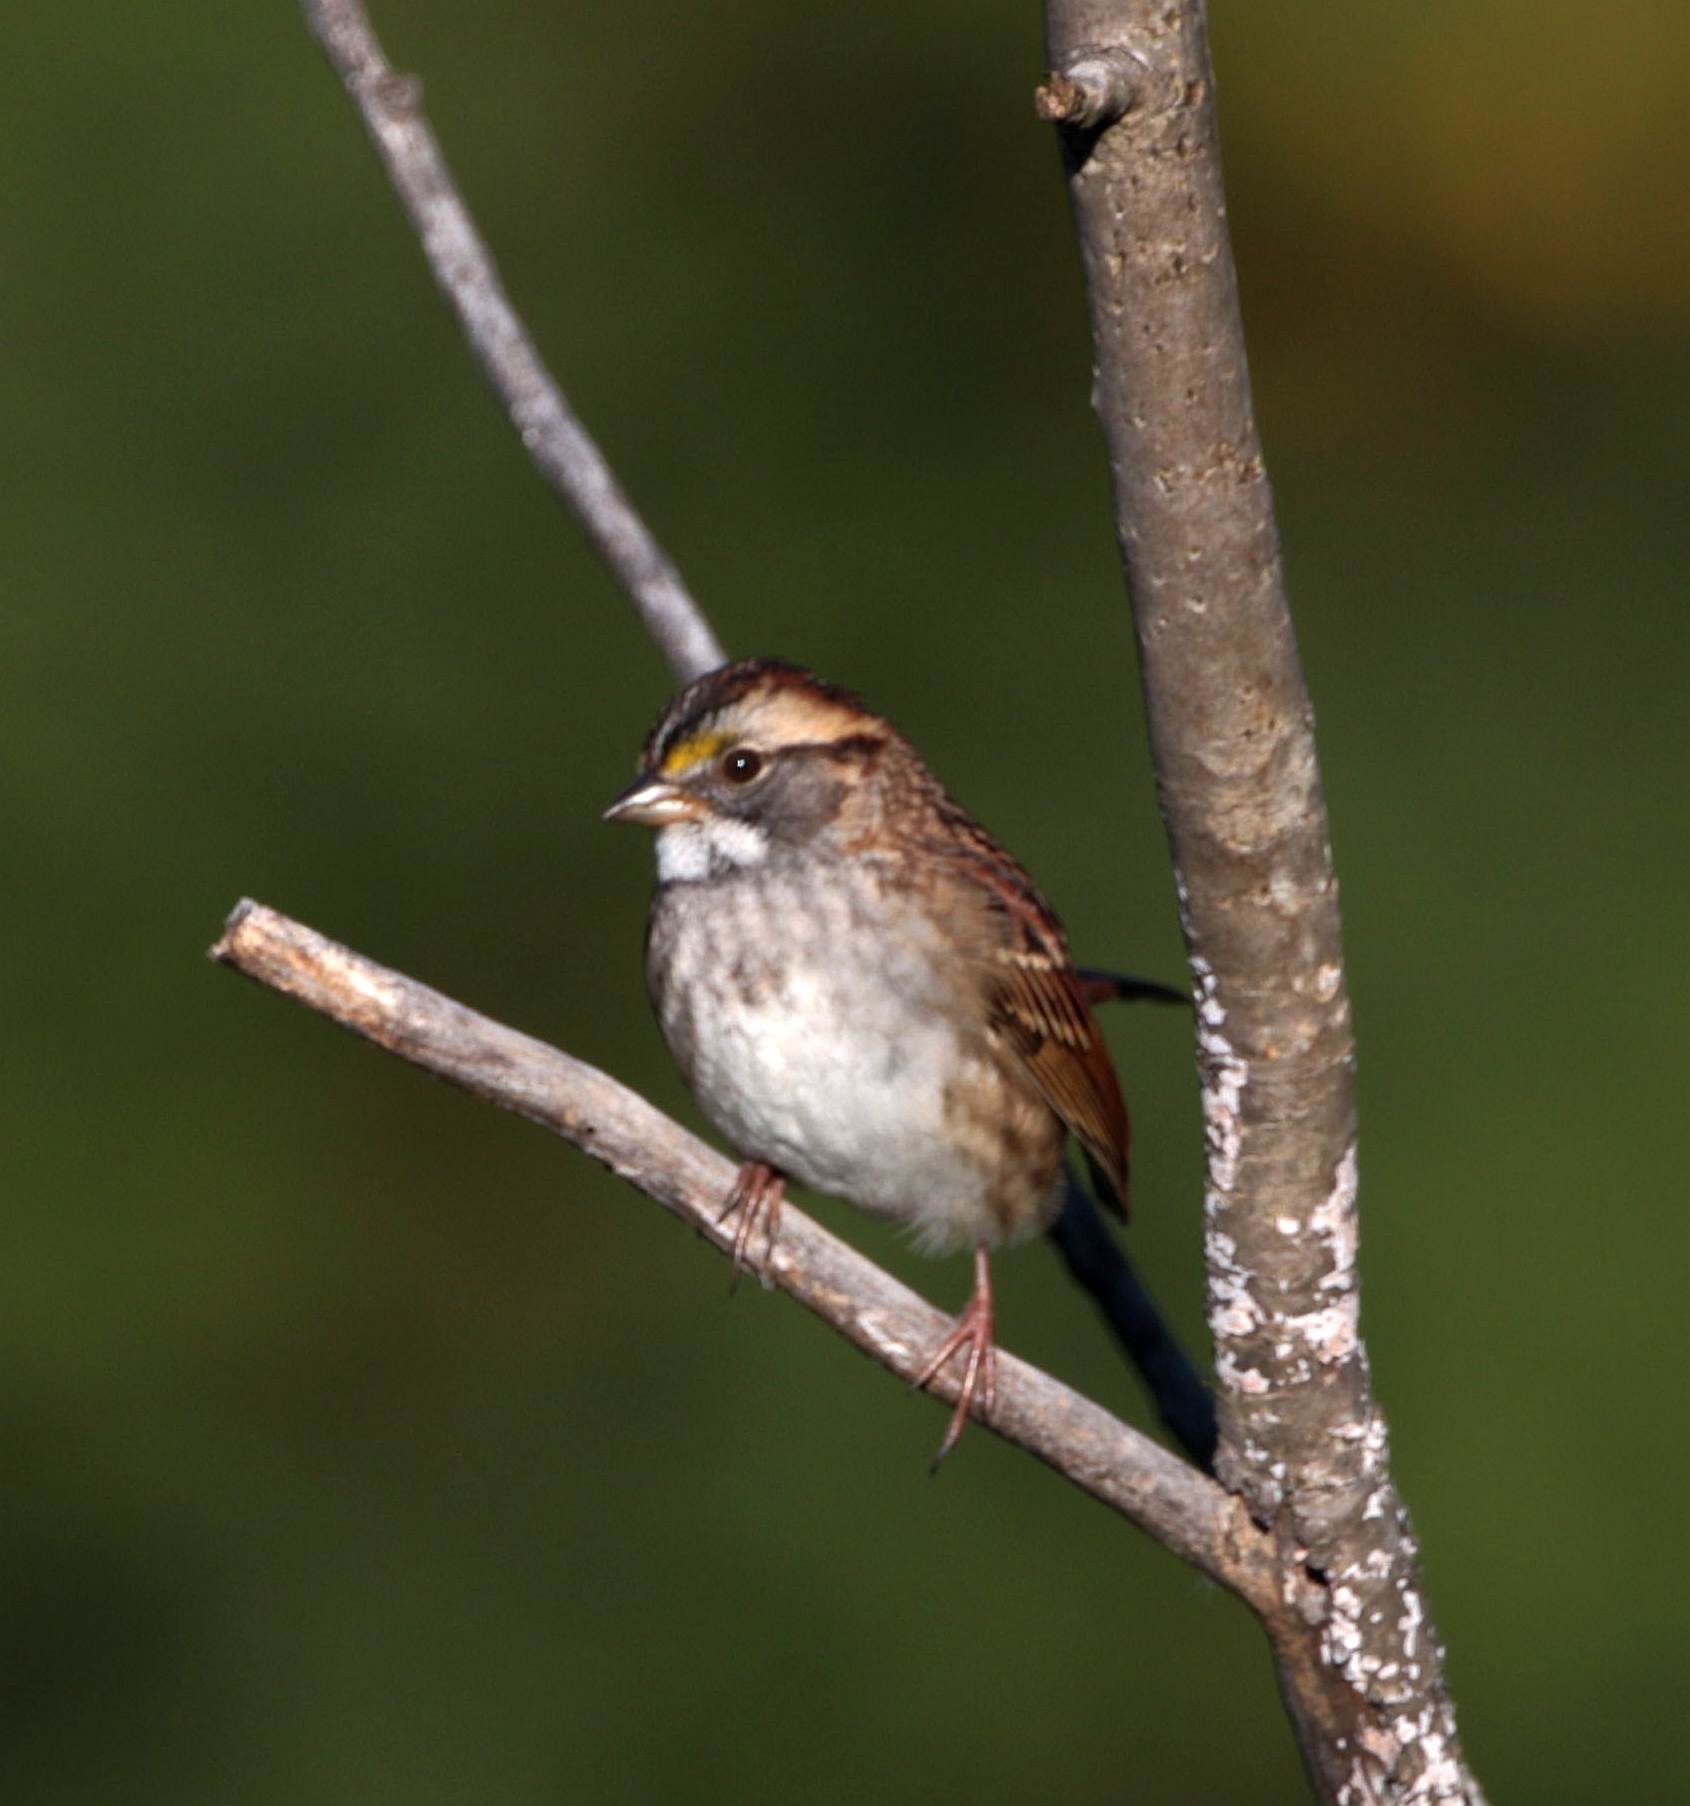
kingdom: Animalia
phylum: Chordata
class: Aves
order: Passeriformes
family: Passerellidae
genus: Zonotrichia
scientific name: Zonotrichia albicollis
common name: White-throated sparrow
